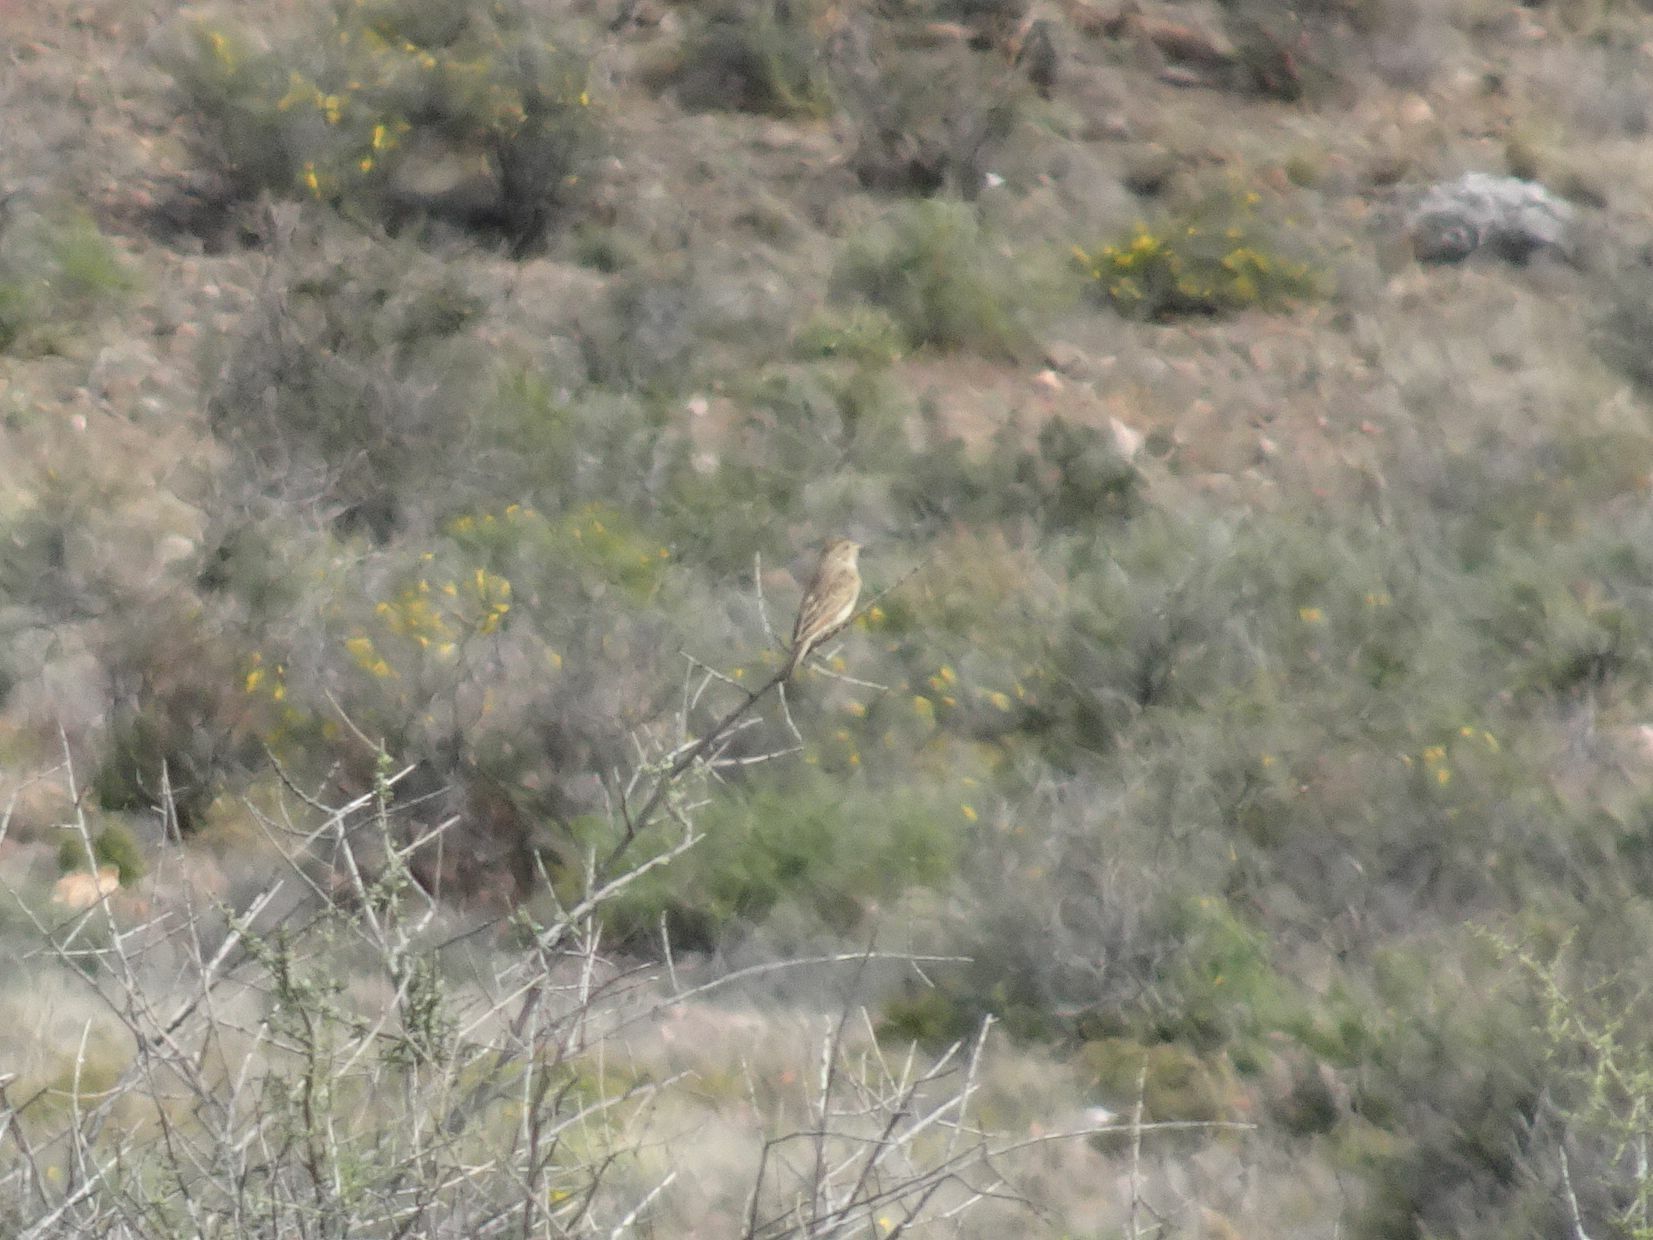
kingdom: Animalia
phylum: Chordata
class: Aves
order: Passeriformes
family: Emberizidae
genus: Emberiza
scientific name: Emberiza impetuani
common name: Lark-like bunting
